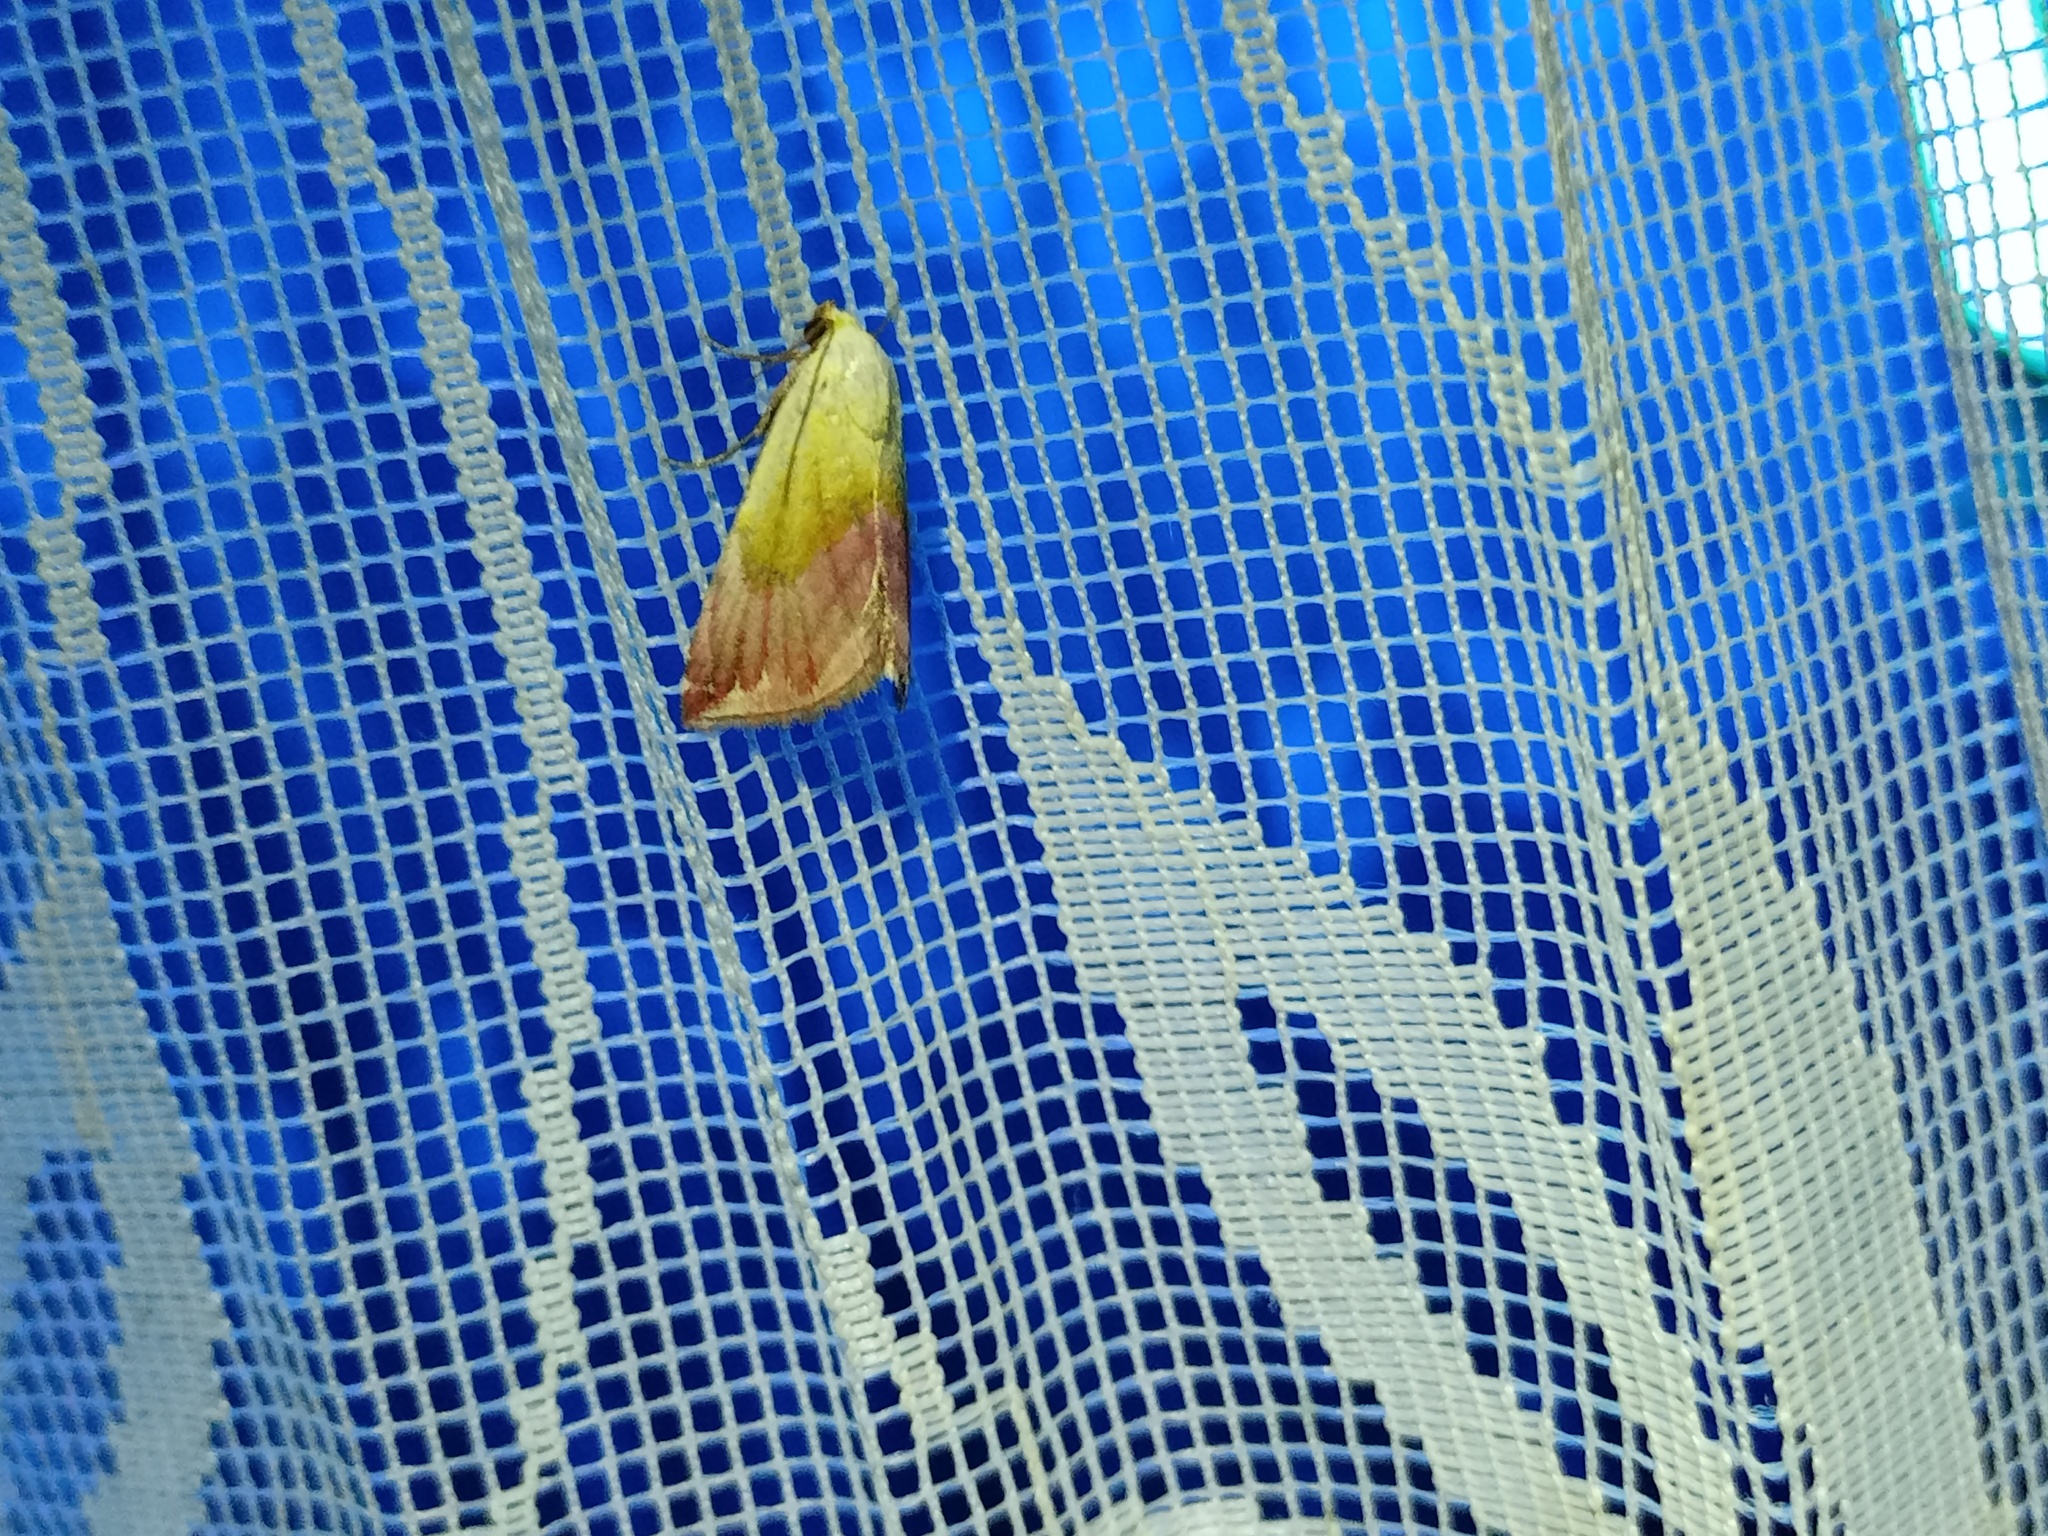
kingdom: Animalia
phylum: Arthropoda
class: Insecta
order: Lepidoptera
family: Noctuidae
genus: Eublemma
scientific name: Eublemma purpurina
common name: Beautiful marbled
